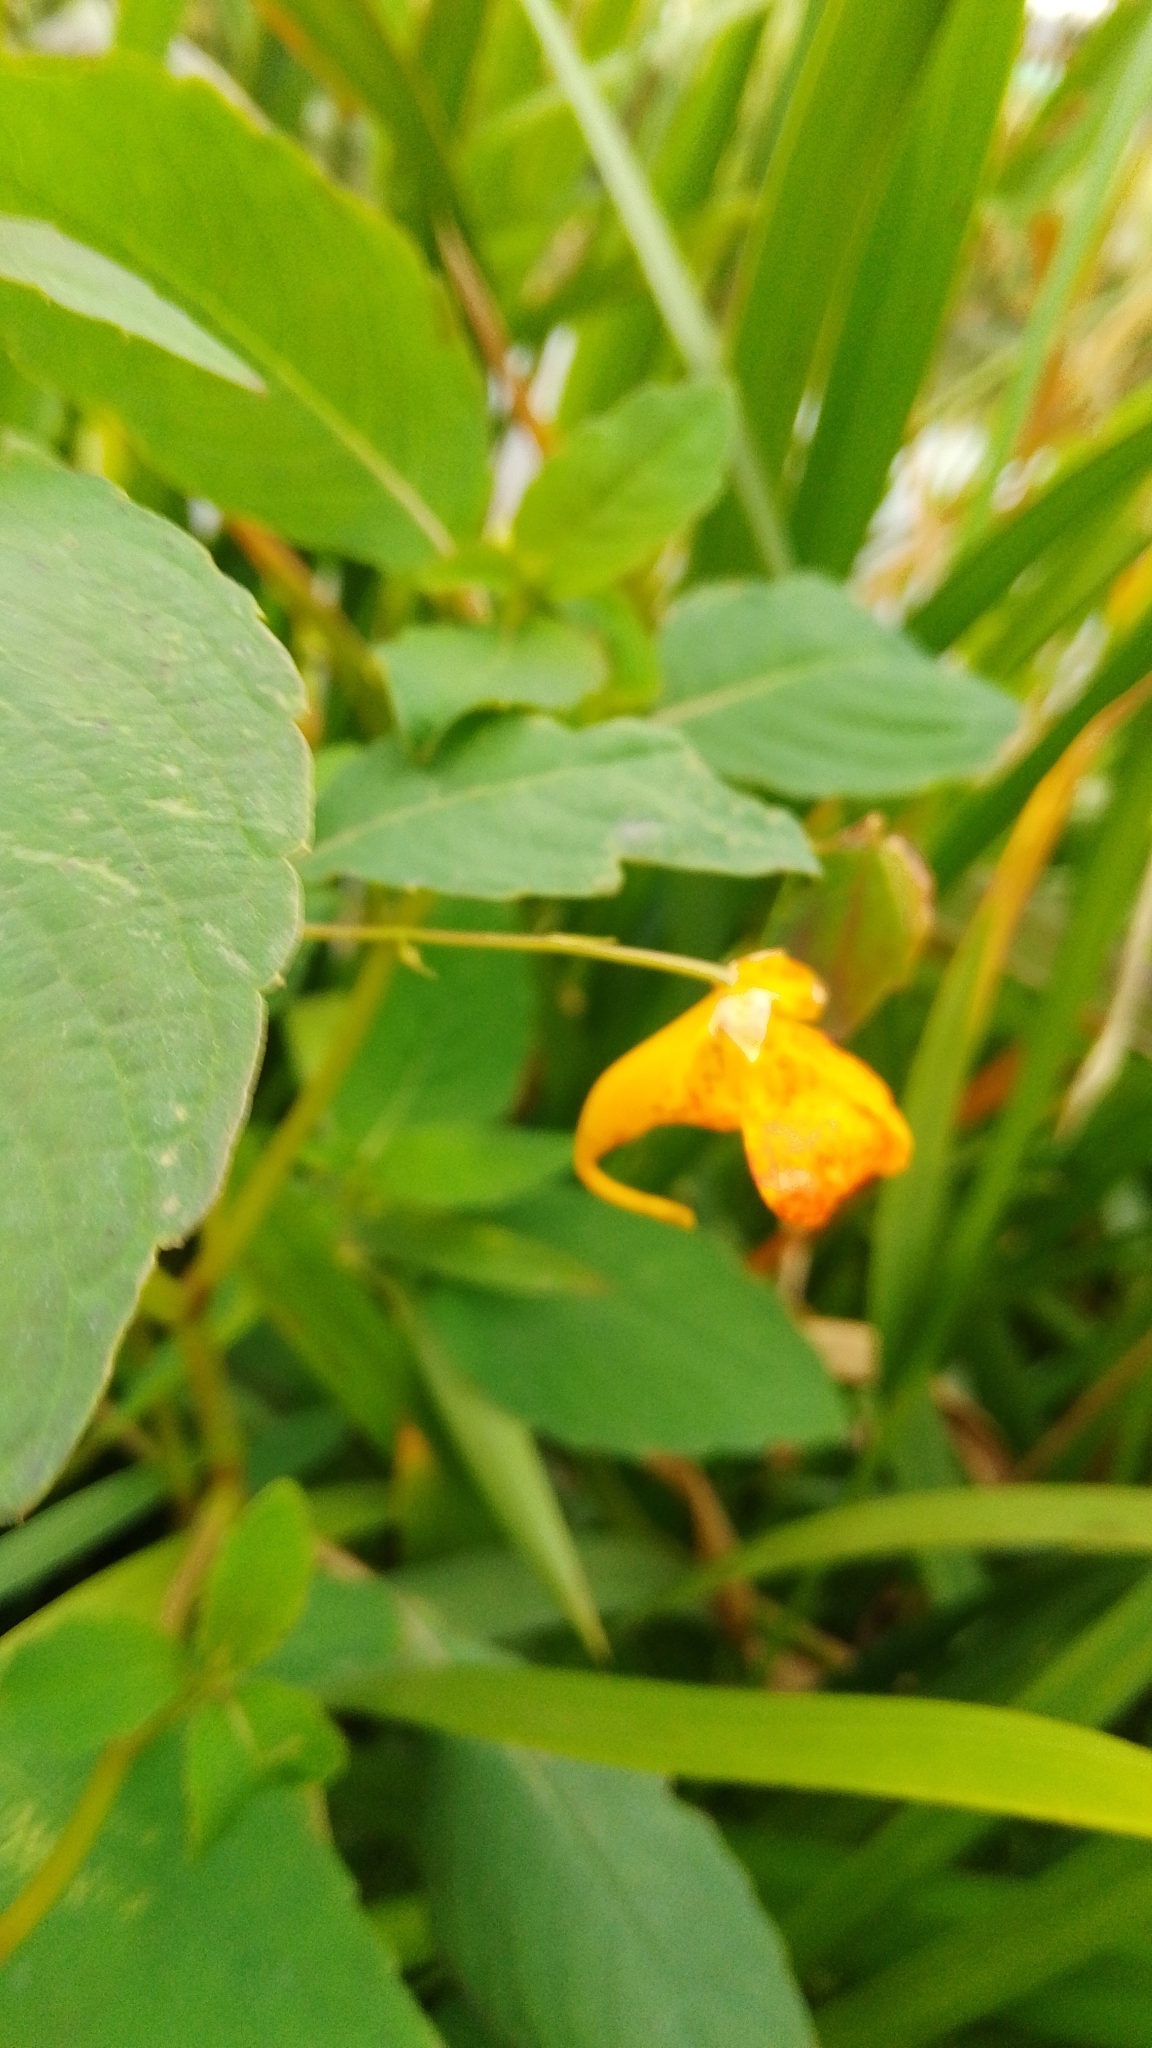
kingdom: Plantae
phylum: Tracheophyta
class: Magnoliopsida
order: Ericales
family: Balsaminaceae
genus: Impatiens
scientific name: Impatiens capensis
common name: Orange balsam
